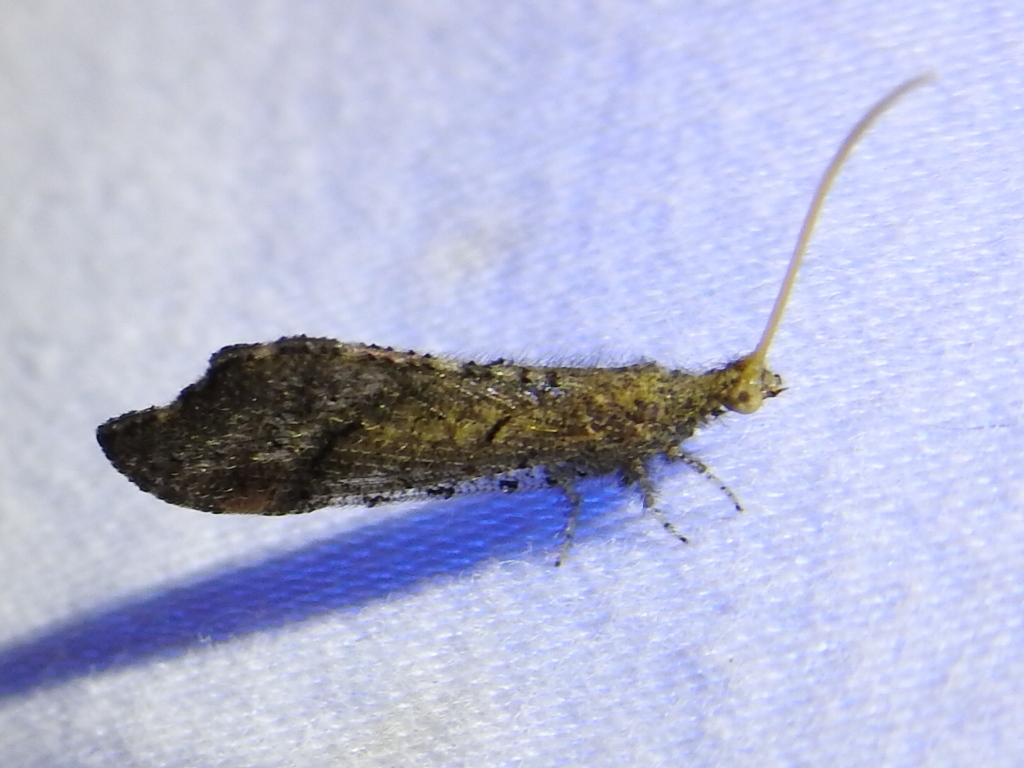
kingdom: Animalia
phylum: Arthropoda
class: Insecta
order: Neuroptera
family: Berothidae
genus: Lomamyia
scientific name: Lomamyia squamosa
